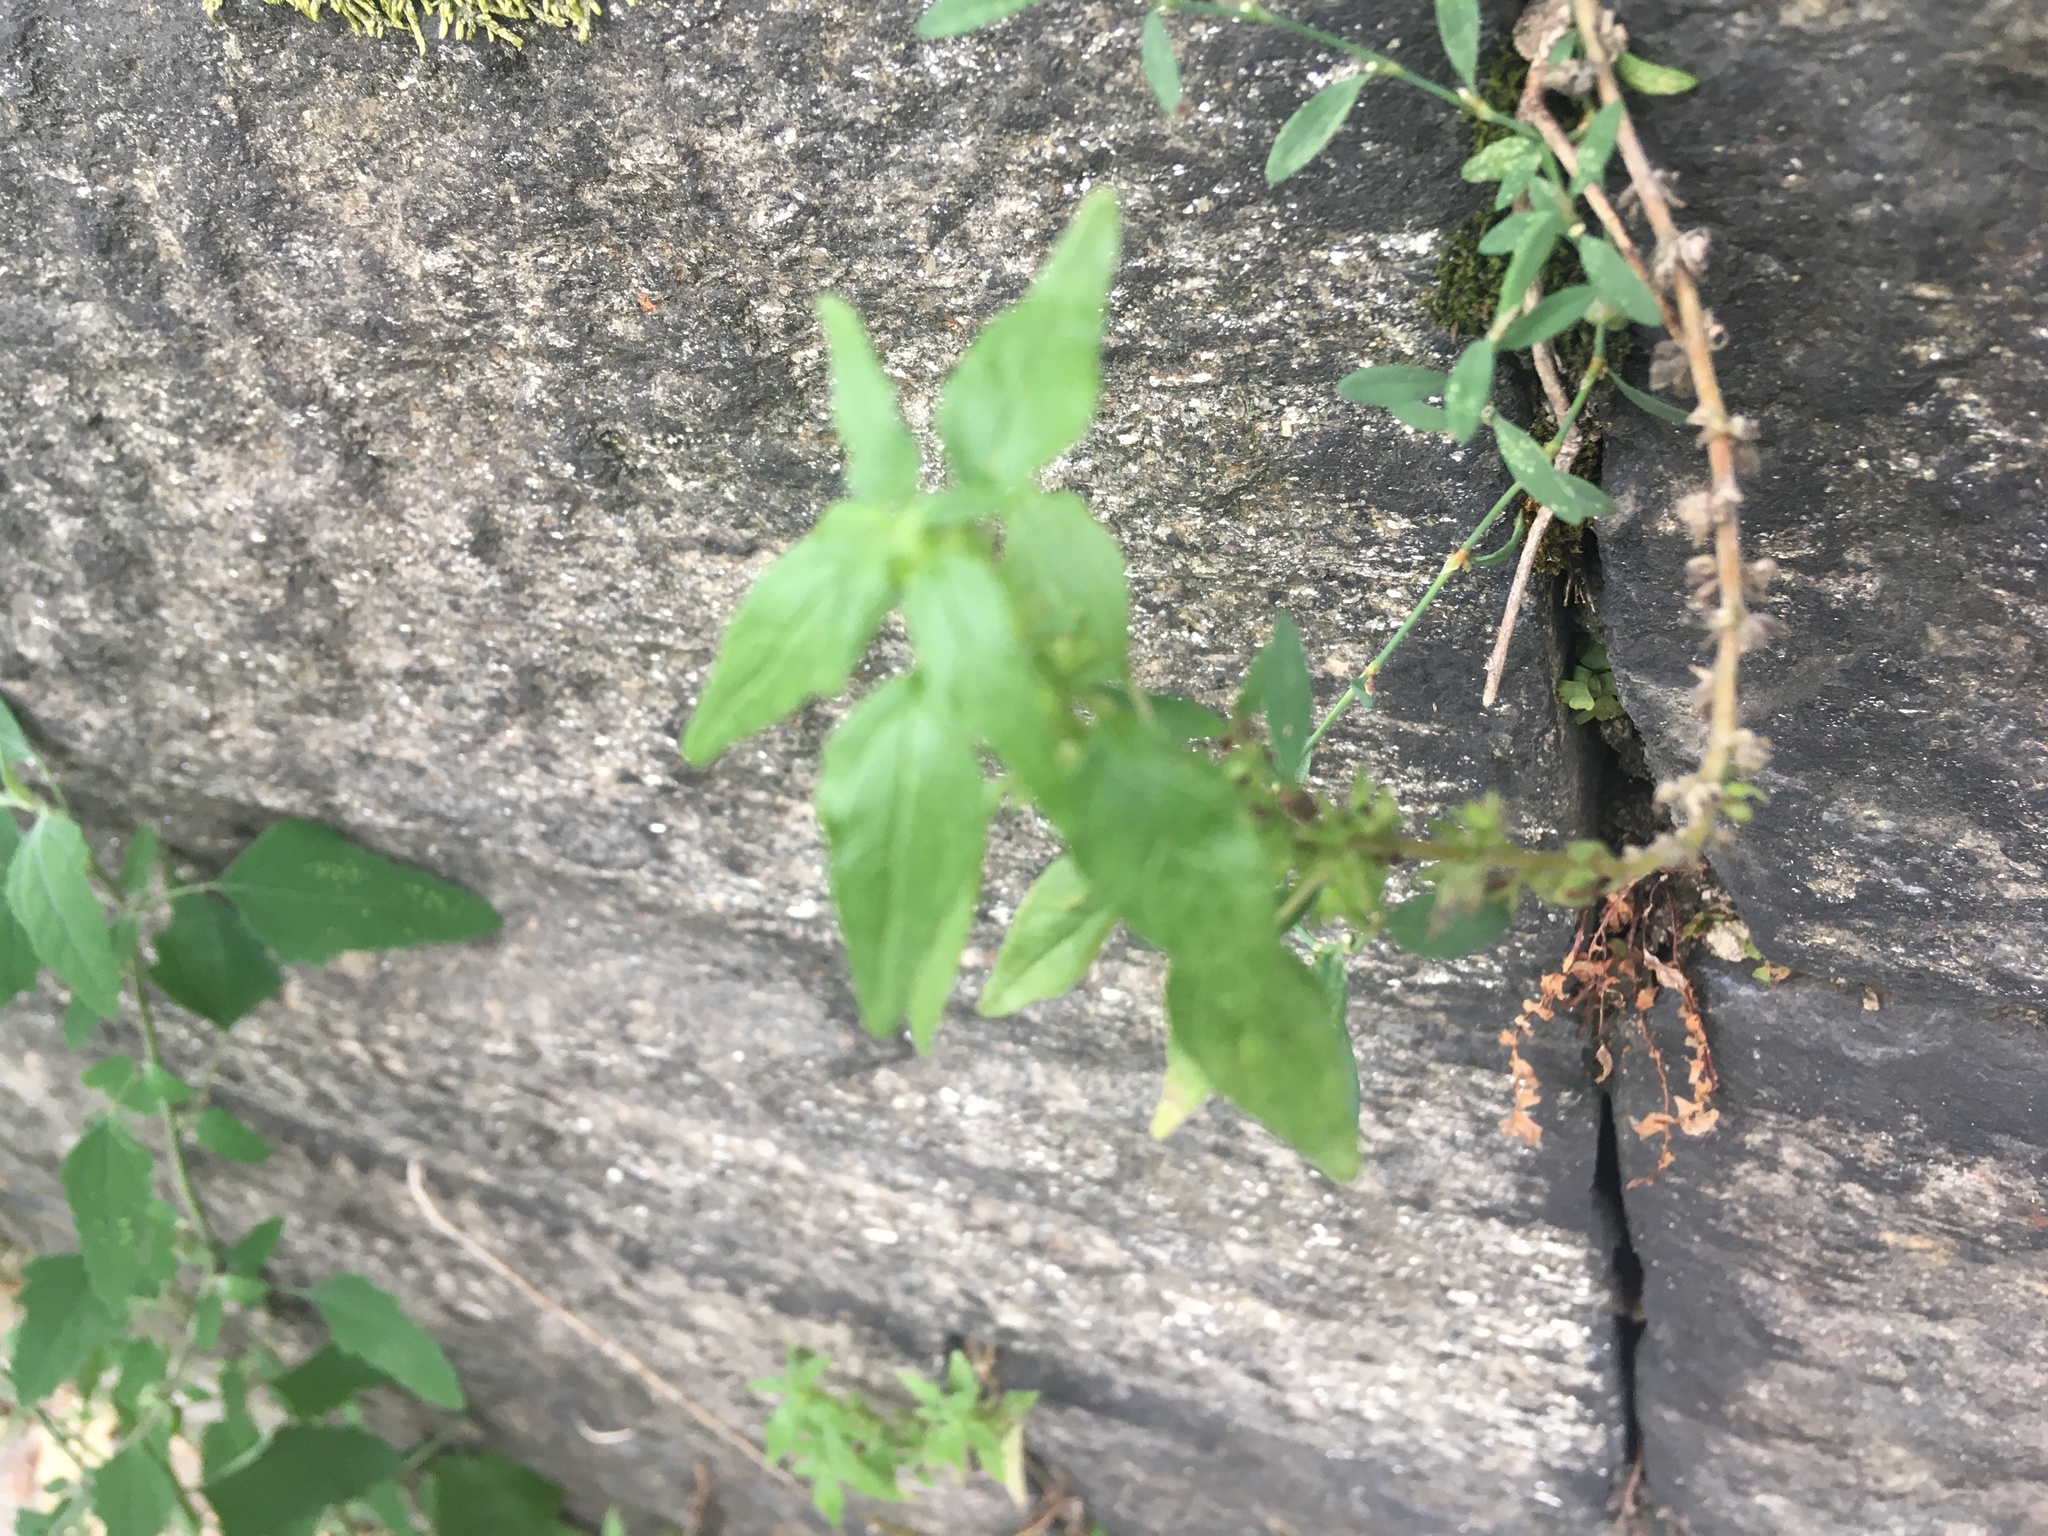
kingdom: Plantae
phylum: Tracheophyta
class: Magnoliopsida
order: Rosales
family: Urticaceae
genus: Parietaria
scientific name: Parietaria pensylvanica
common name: Pennsylvania pellitory
